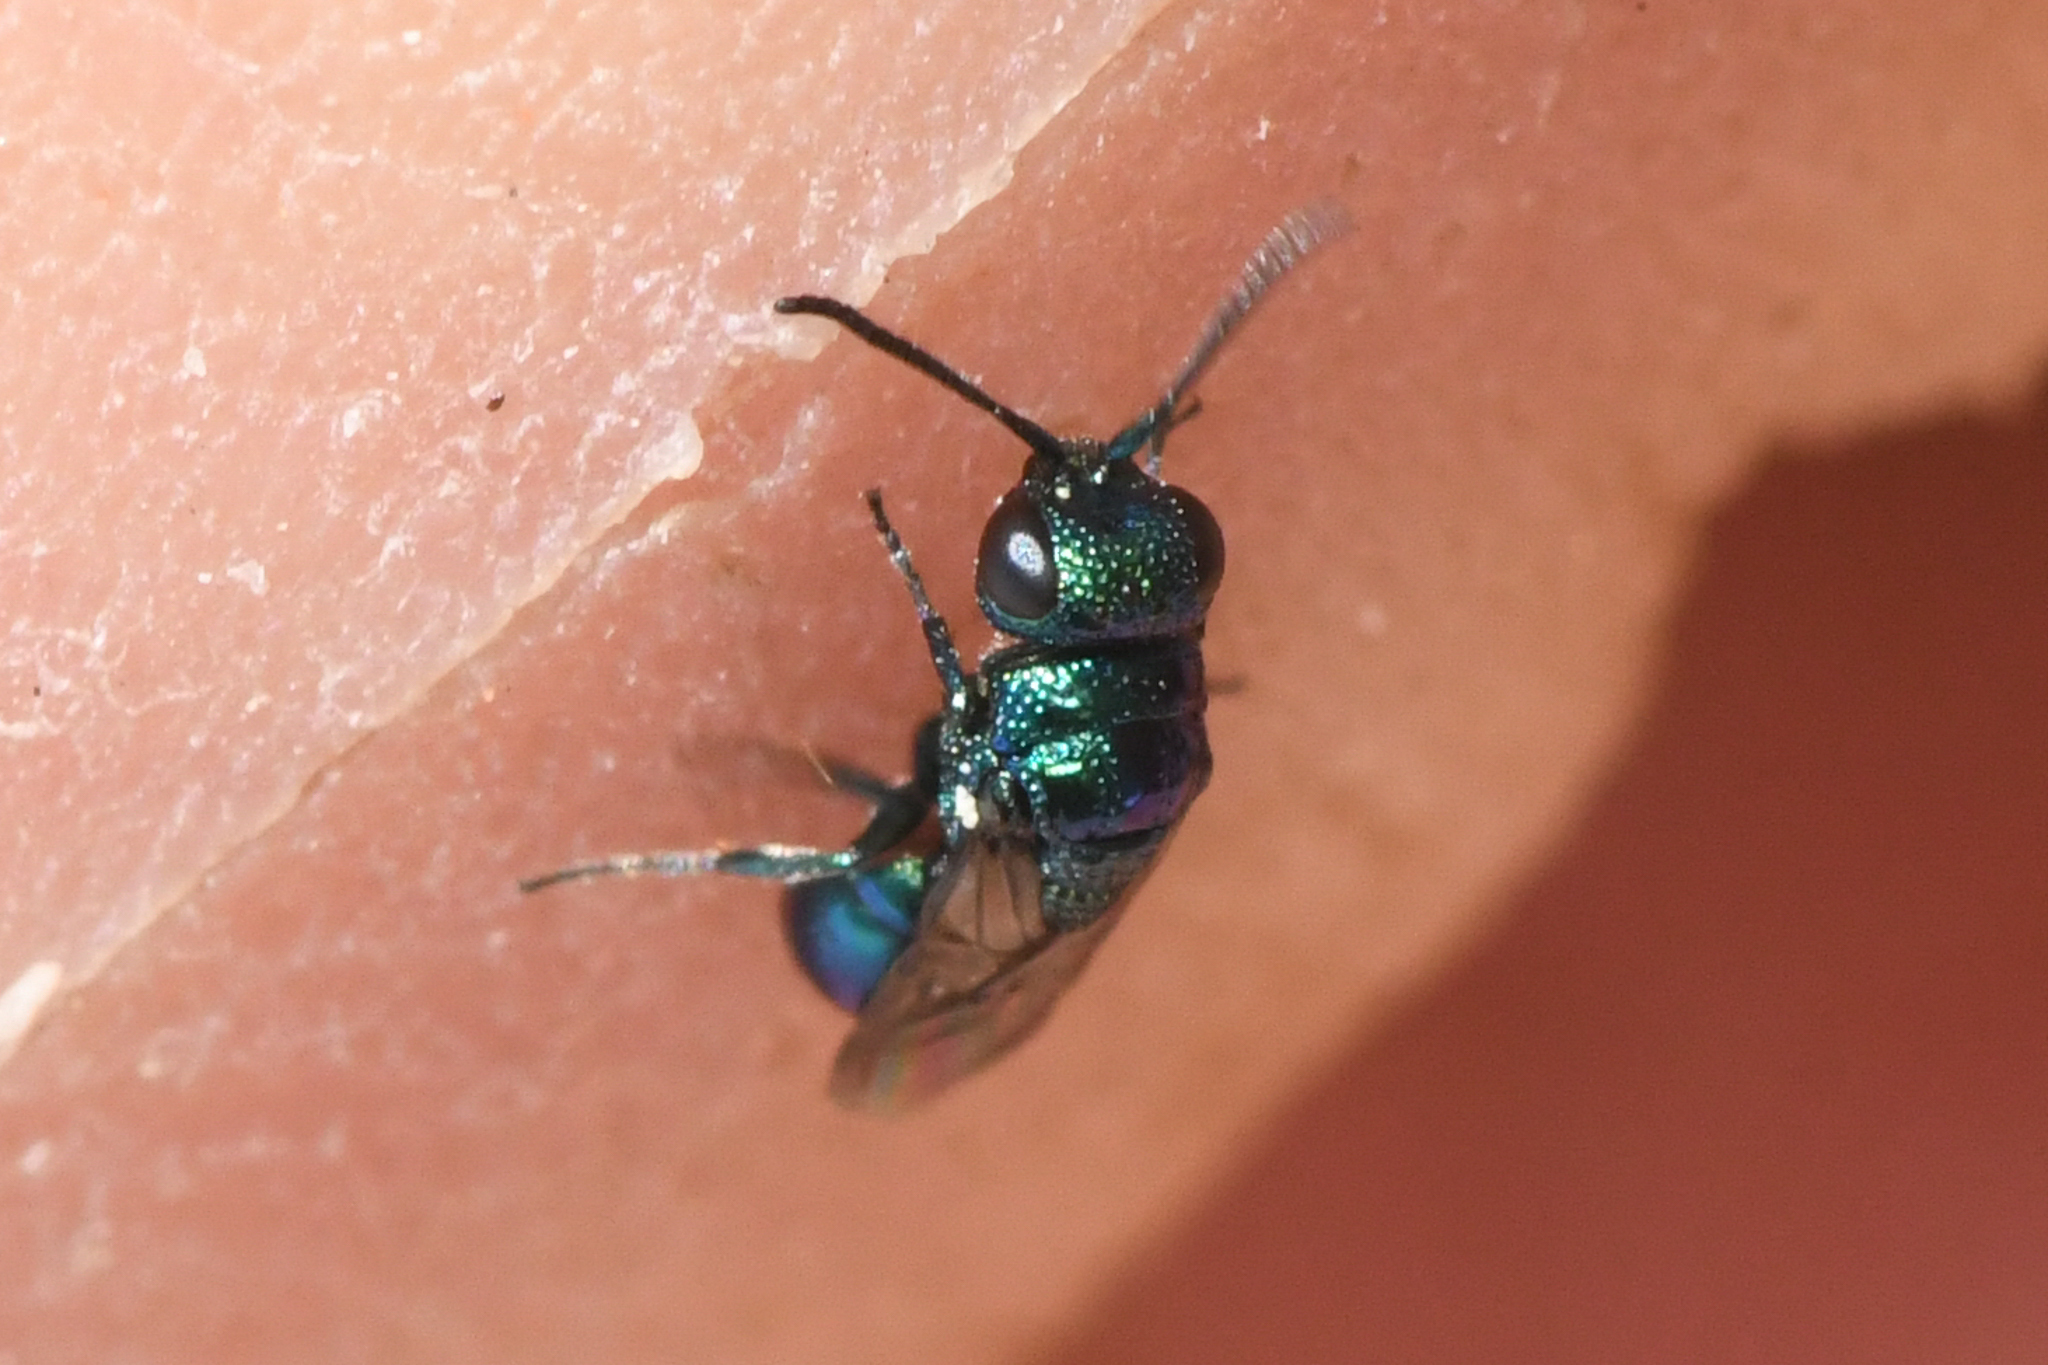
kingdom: Animalia
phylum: Arthropoda
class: Insecta
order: Hymenoptera
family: Chrysididae
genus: Philoctetes
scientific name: Philoctetes
